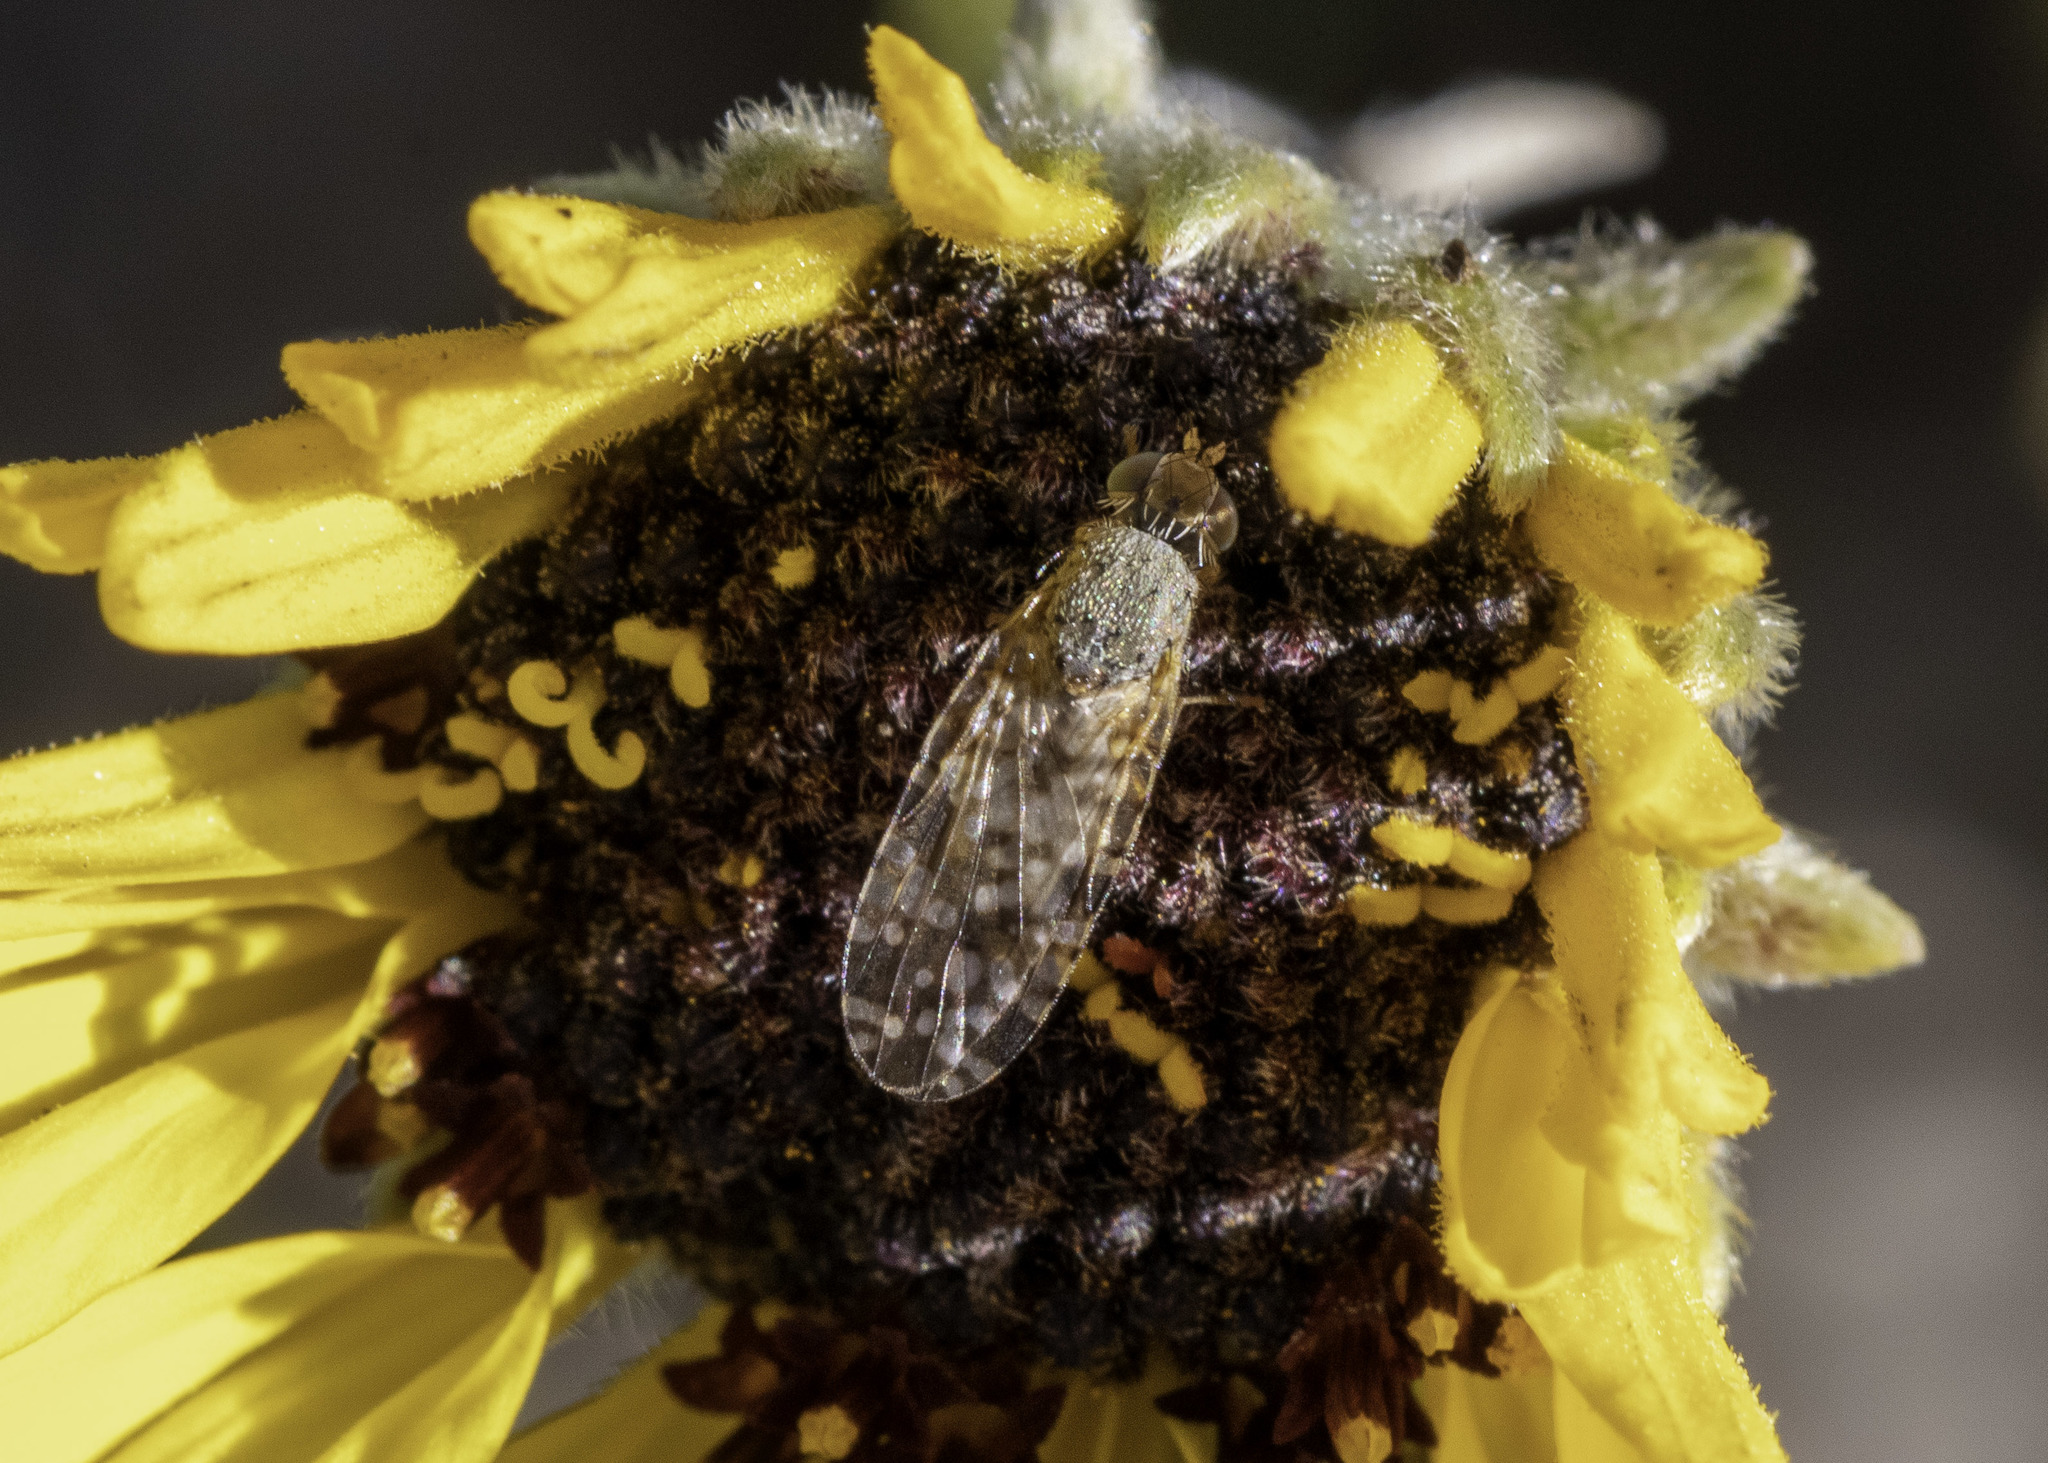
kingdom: Animalia
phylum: Arthropoda
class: Insecta
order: Diptera
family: Tephritidae
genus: Neotephritis
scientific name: Neotephritis finalis
